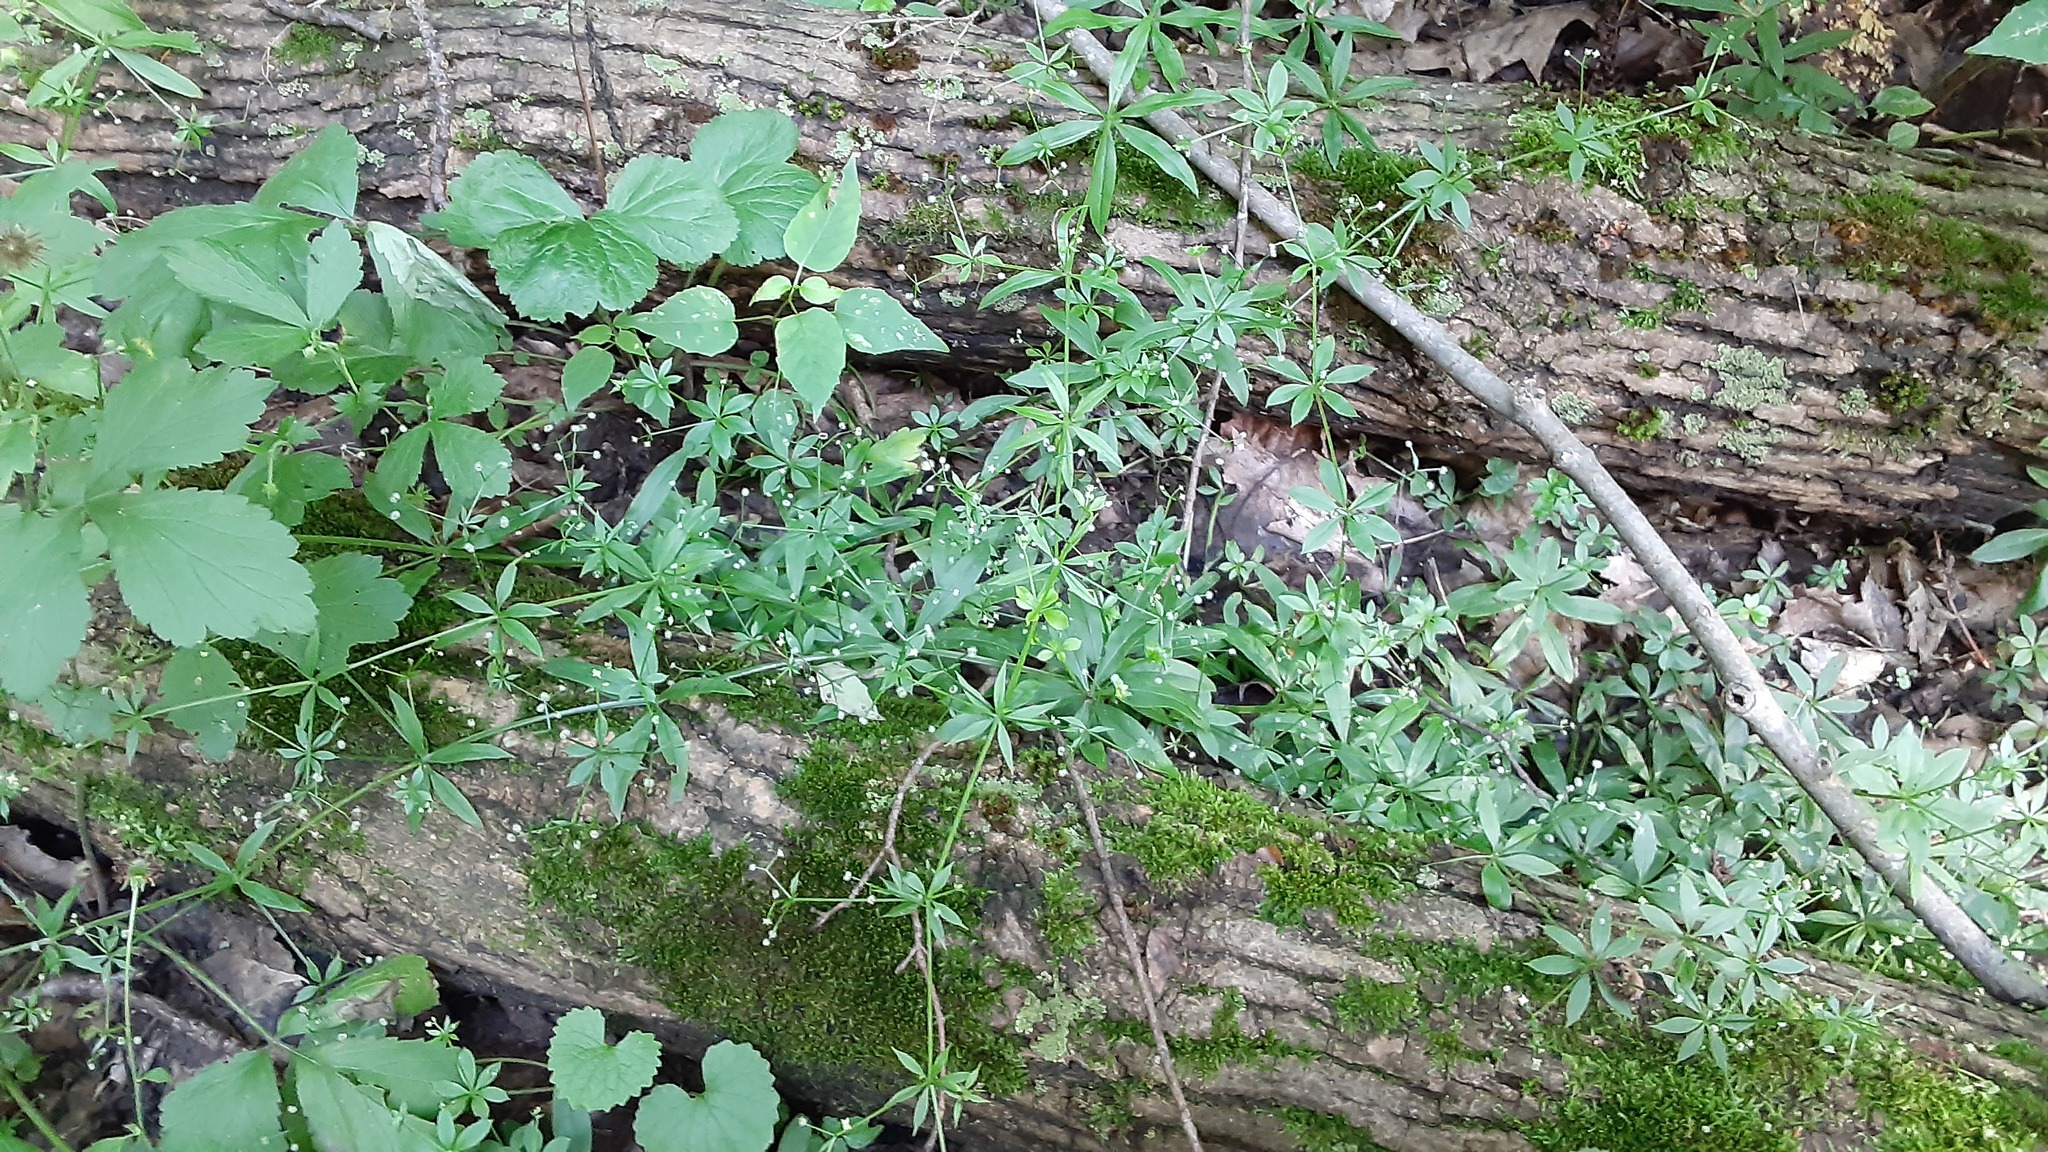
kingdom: Plantae
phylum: Tracheophyta
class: Magnoliopsida
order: Gentianales
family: Rubiaceae
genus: Galium
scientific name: Galium triflorum
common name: Fragrant bedstraw
